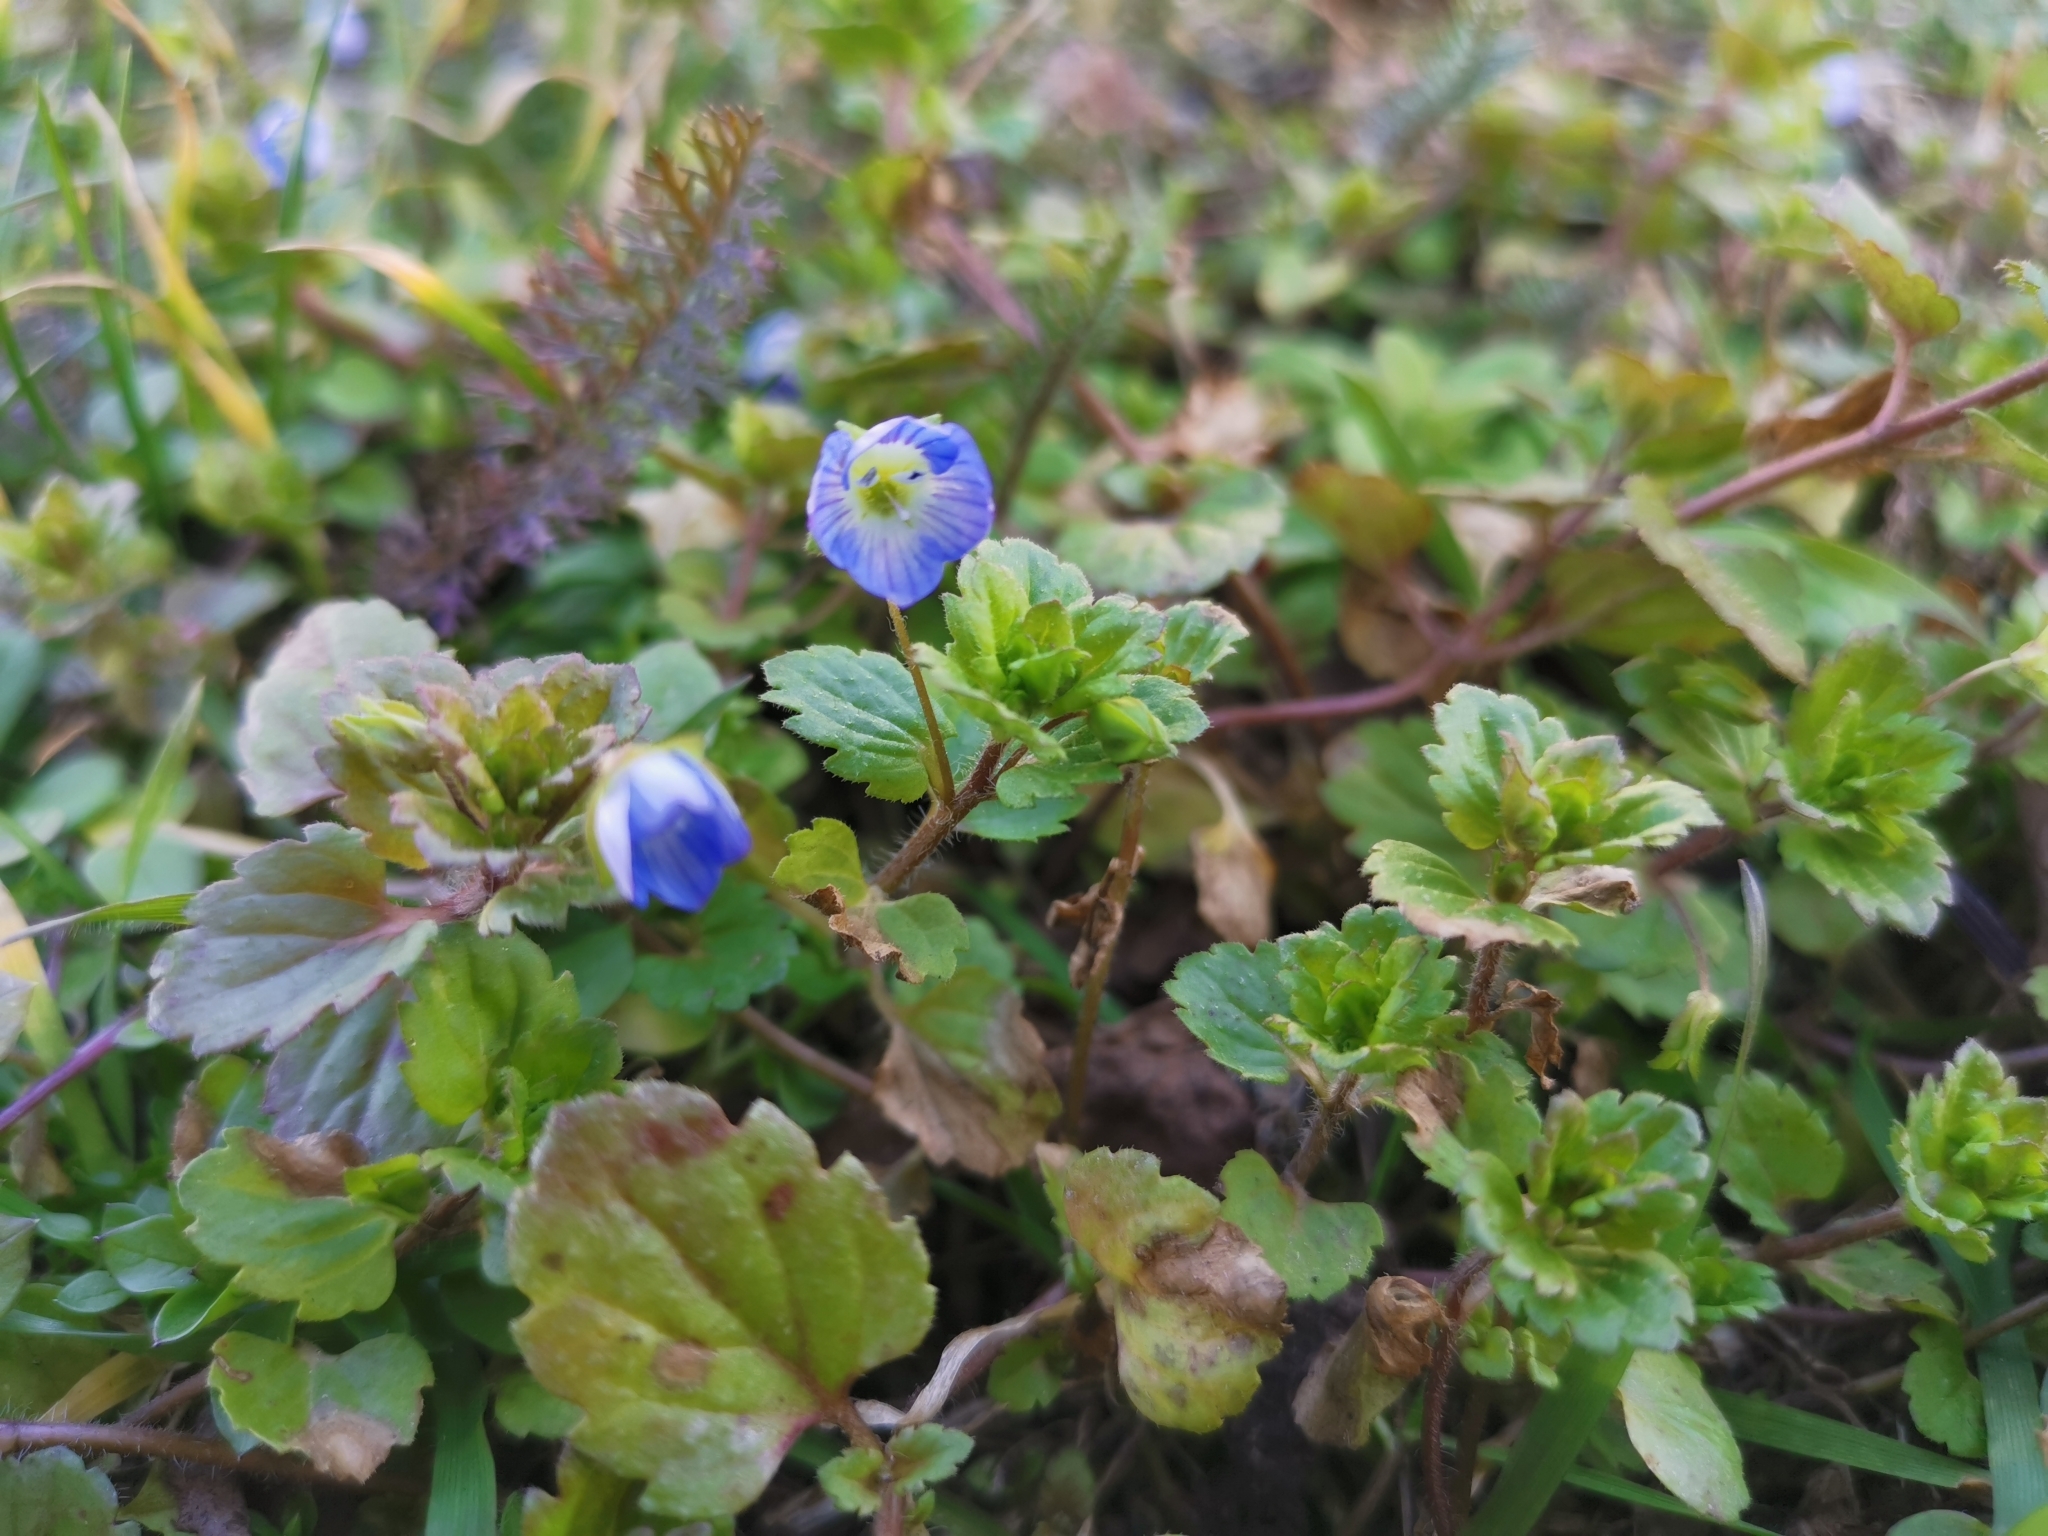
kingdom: Plantae
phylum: Tracheophyta
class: Magnoliopsida
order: Lamiales
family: Plantaginaceae
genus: Veronica
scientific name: Veronica persica
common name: Common field-speedwell
